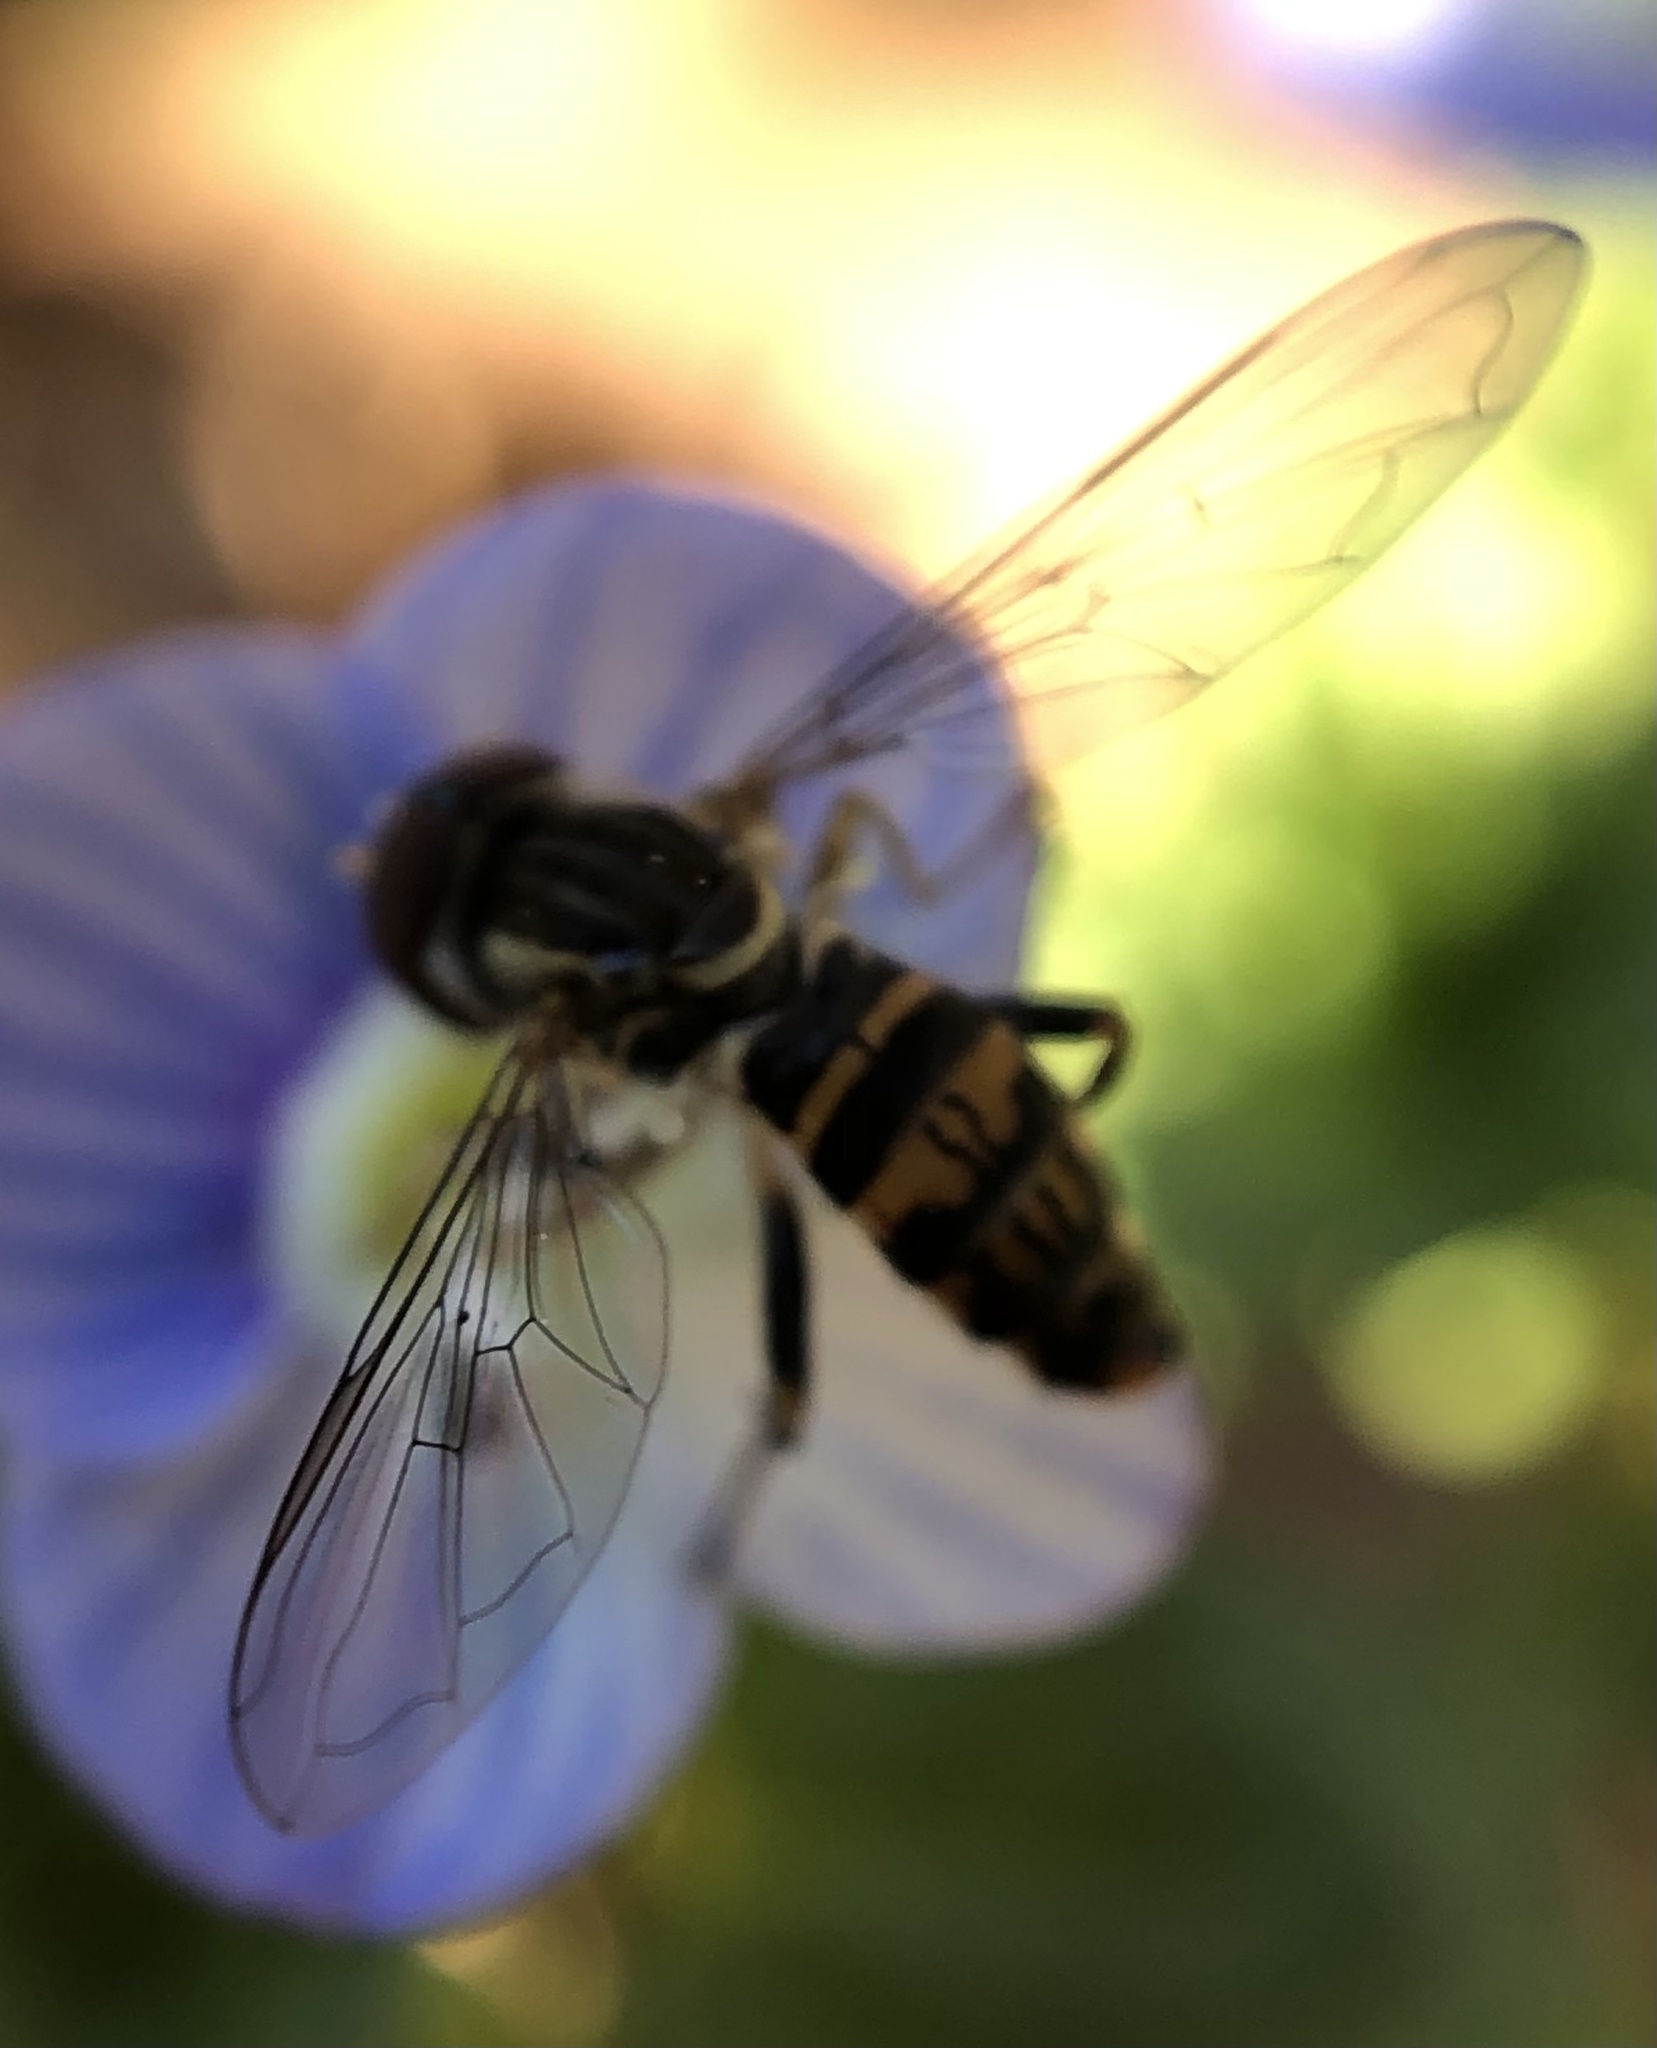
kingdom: Animalia
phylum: Arthropoda
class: Insecta
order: Diptera
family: Syrphidae
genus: Toxomerus
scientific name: Toxomerus geminatus
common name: Eastern calligrapher
